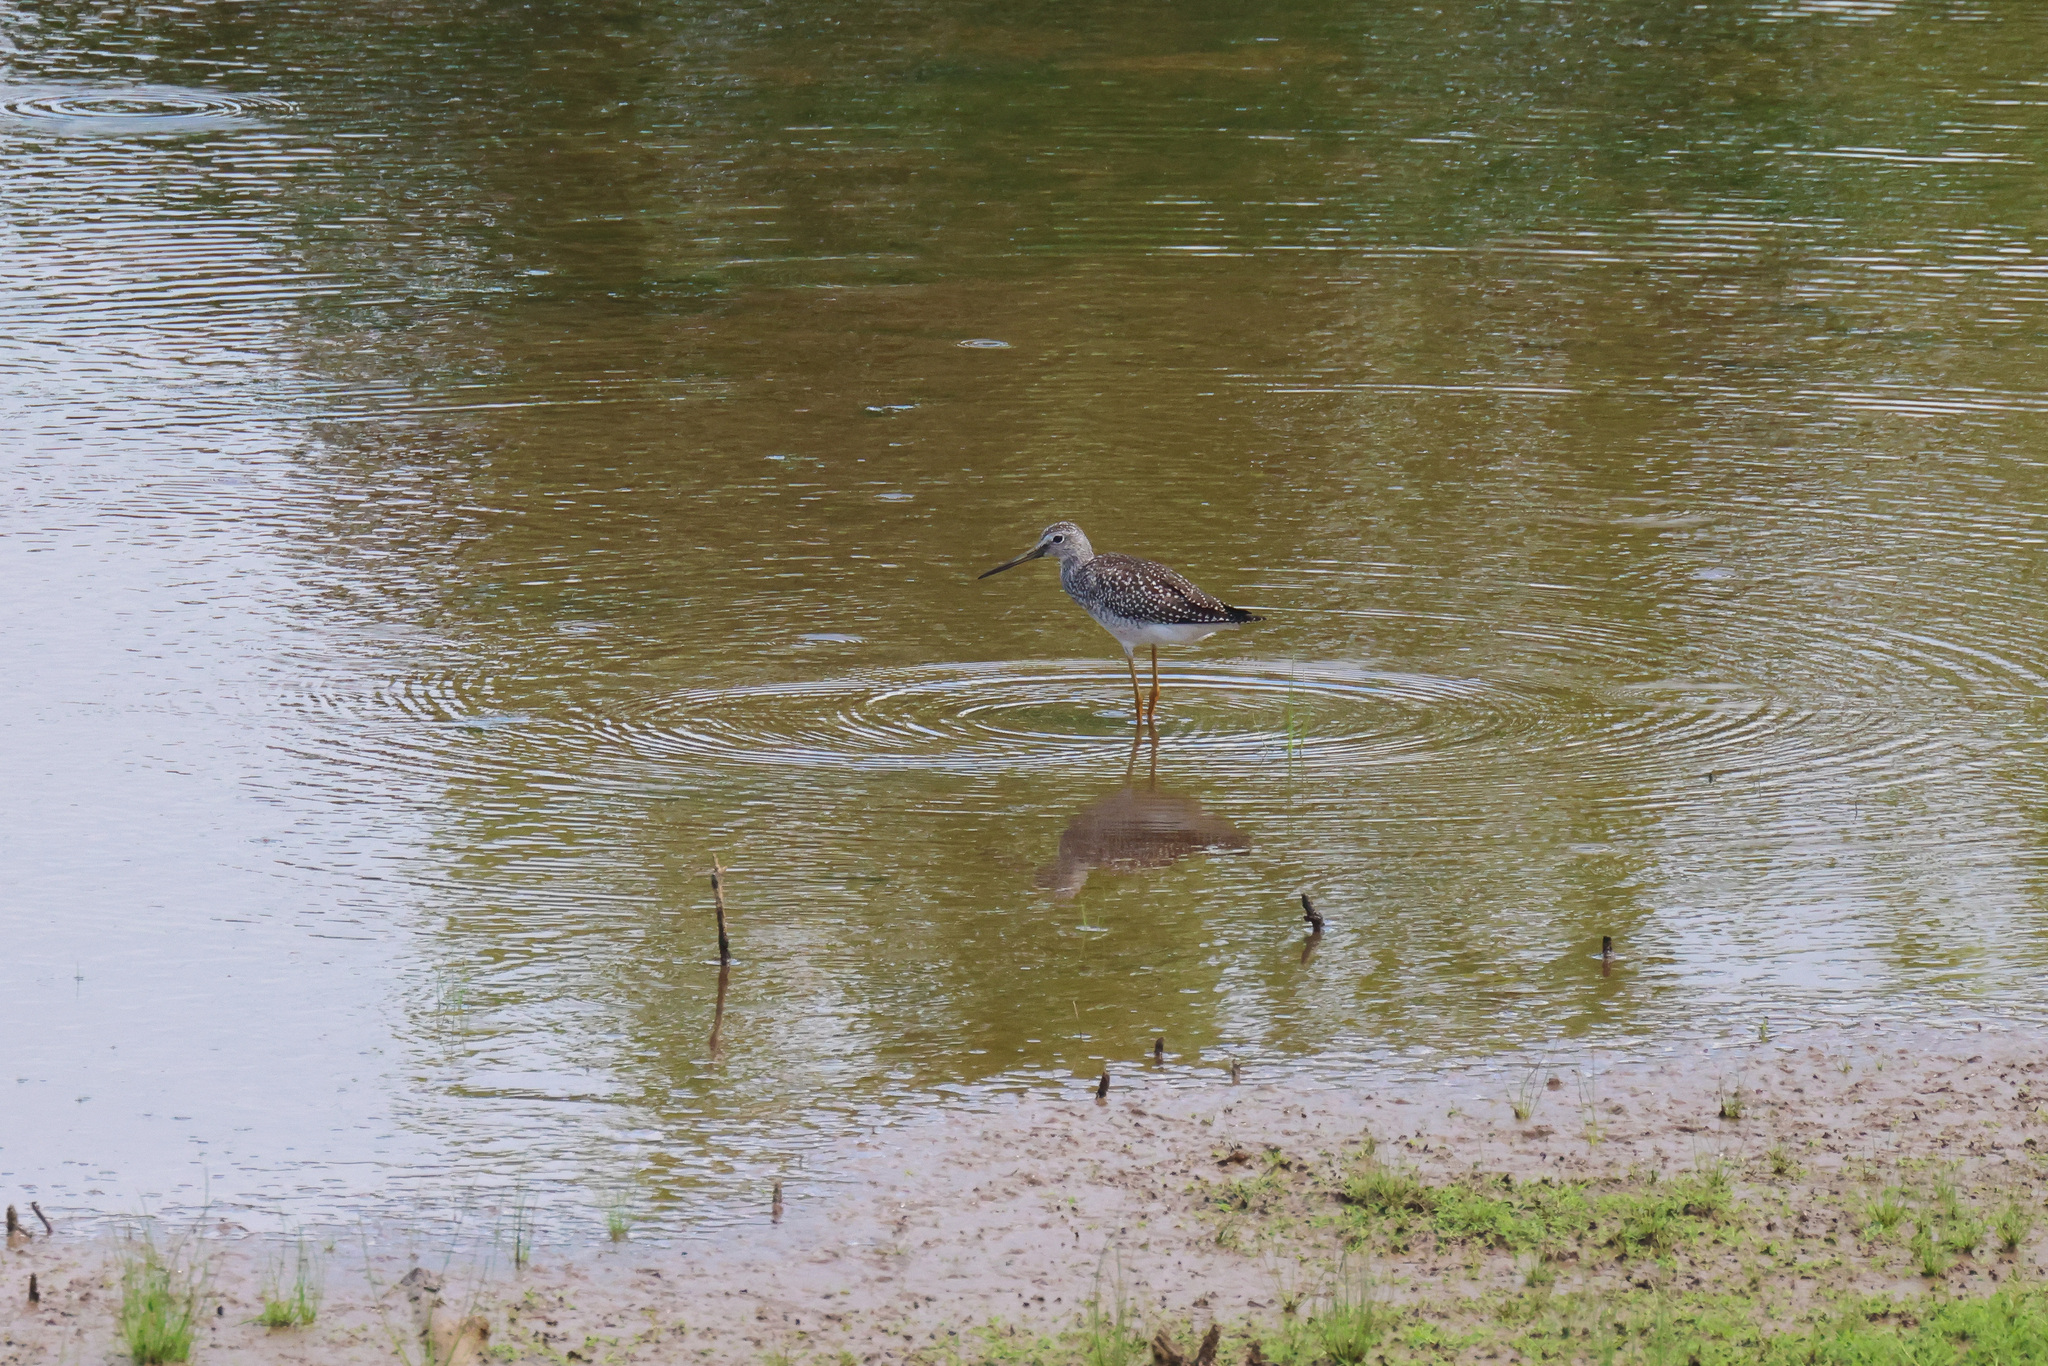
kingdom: Animalia
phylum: Chordata
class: Aves
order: Charadriiformes
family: Scolopacidae
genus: Tringa
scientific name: Tringa melanoleuca
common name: Greater yellowlegs
